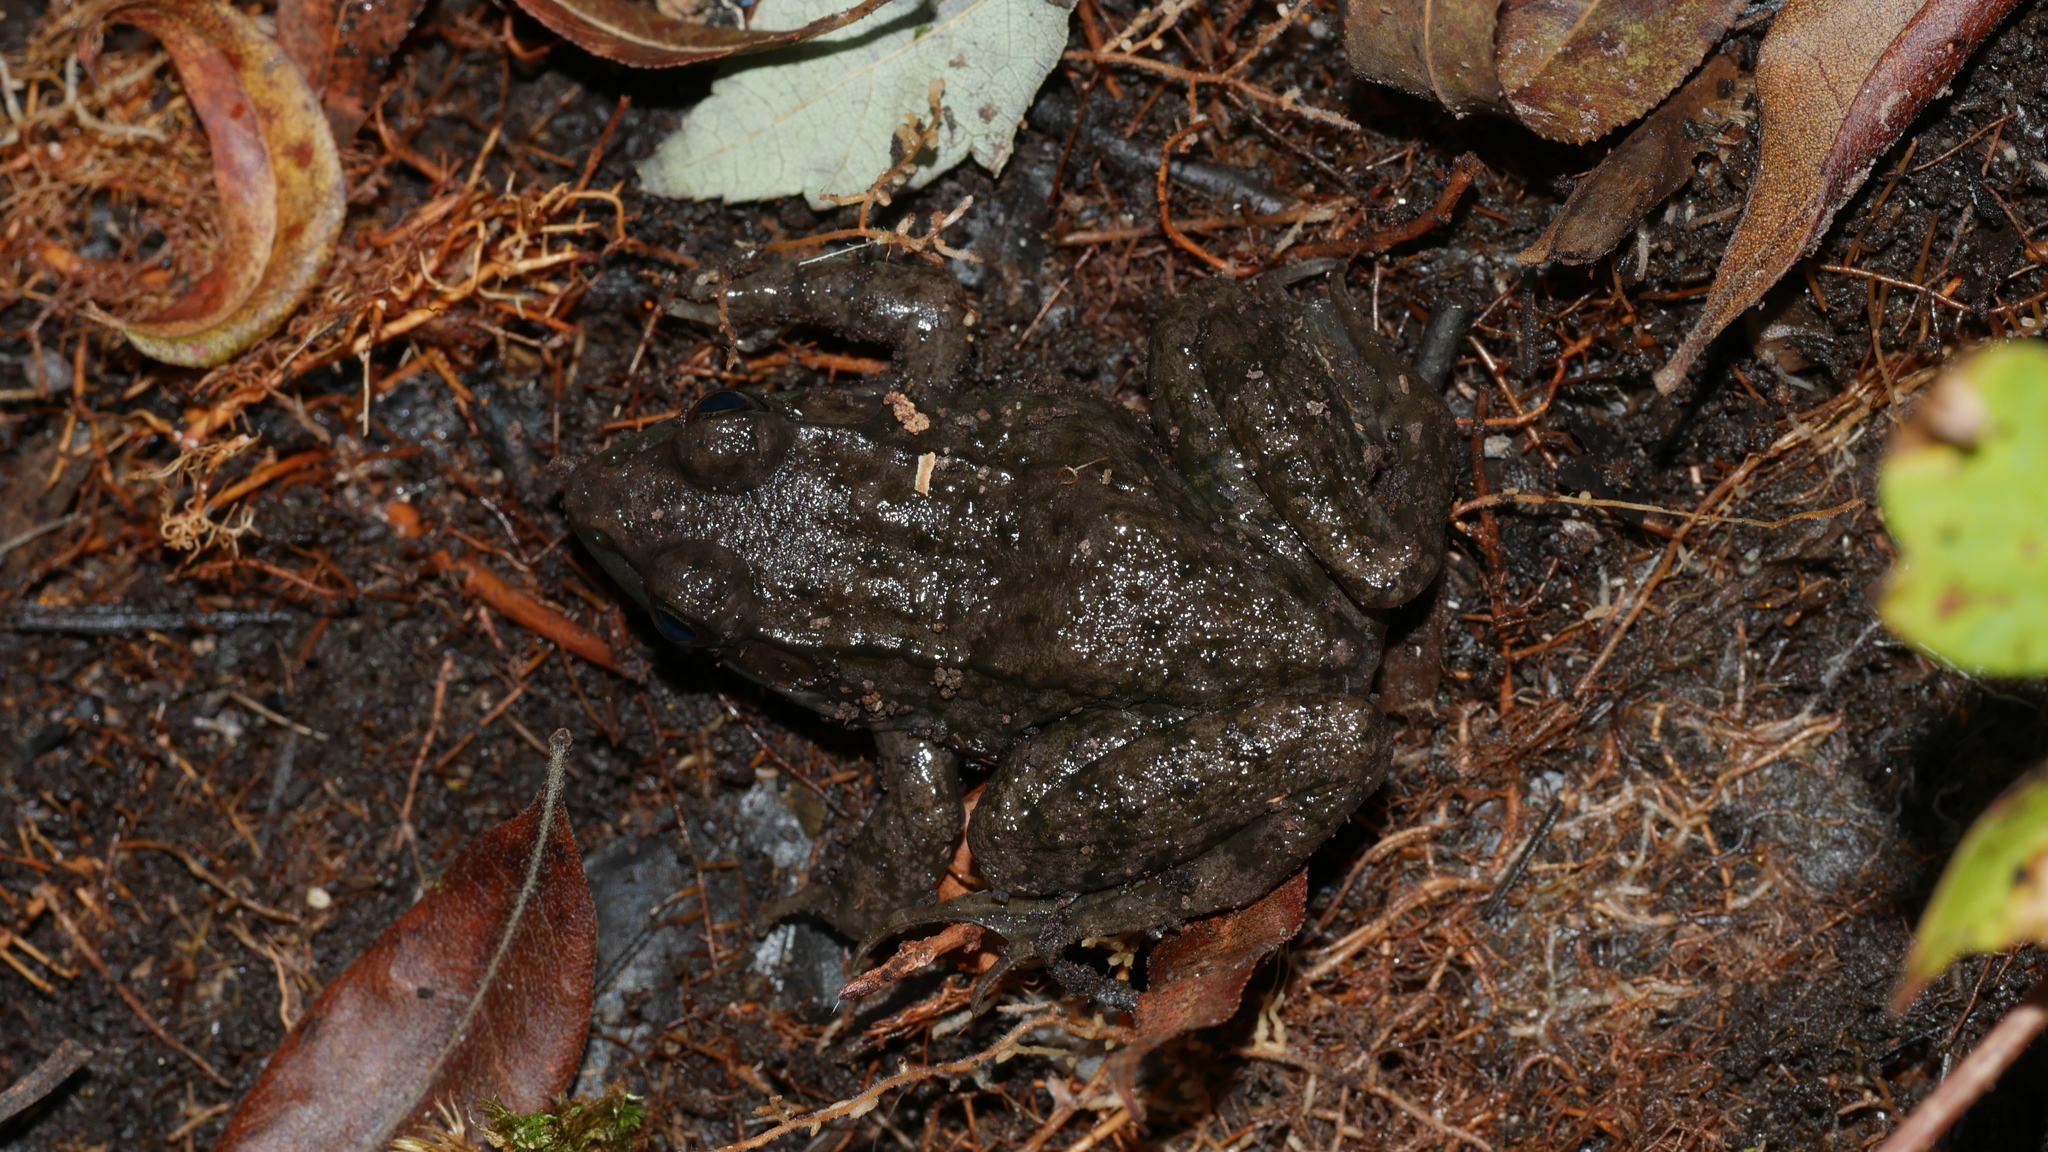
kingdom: Animalia
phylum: Chordata
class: Amphibia
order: Anura
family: Ranidae
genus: Lithobates
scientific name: Lithobates clamitans
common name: Green frog
